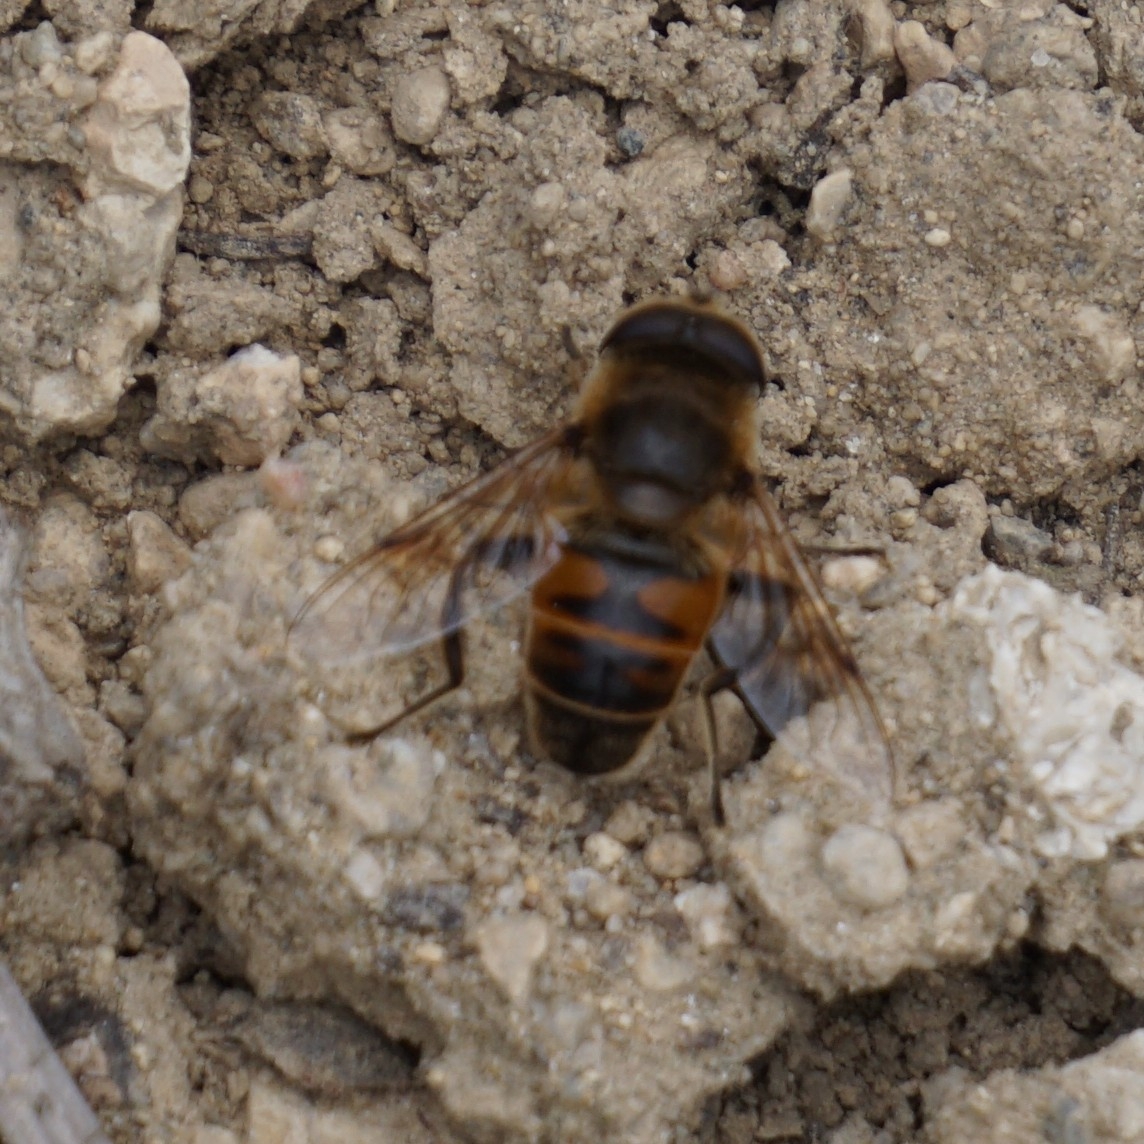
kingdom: Animalia
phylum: Arthropoda
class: Insecta
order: Diptera
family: Syrphidae
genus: Eristalis
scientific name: Eristalis tenax
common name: Drone fly
